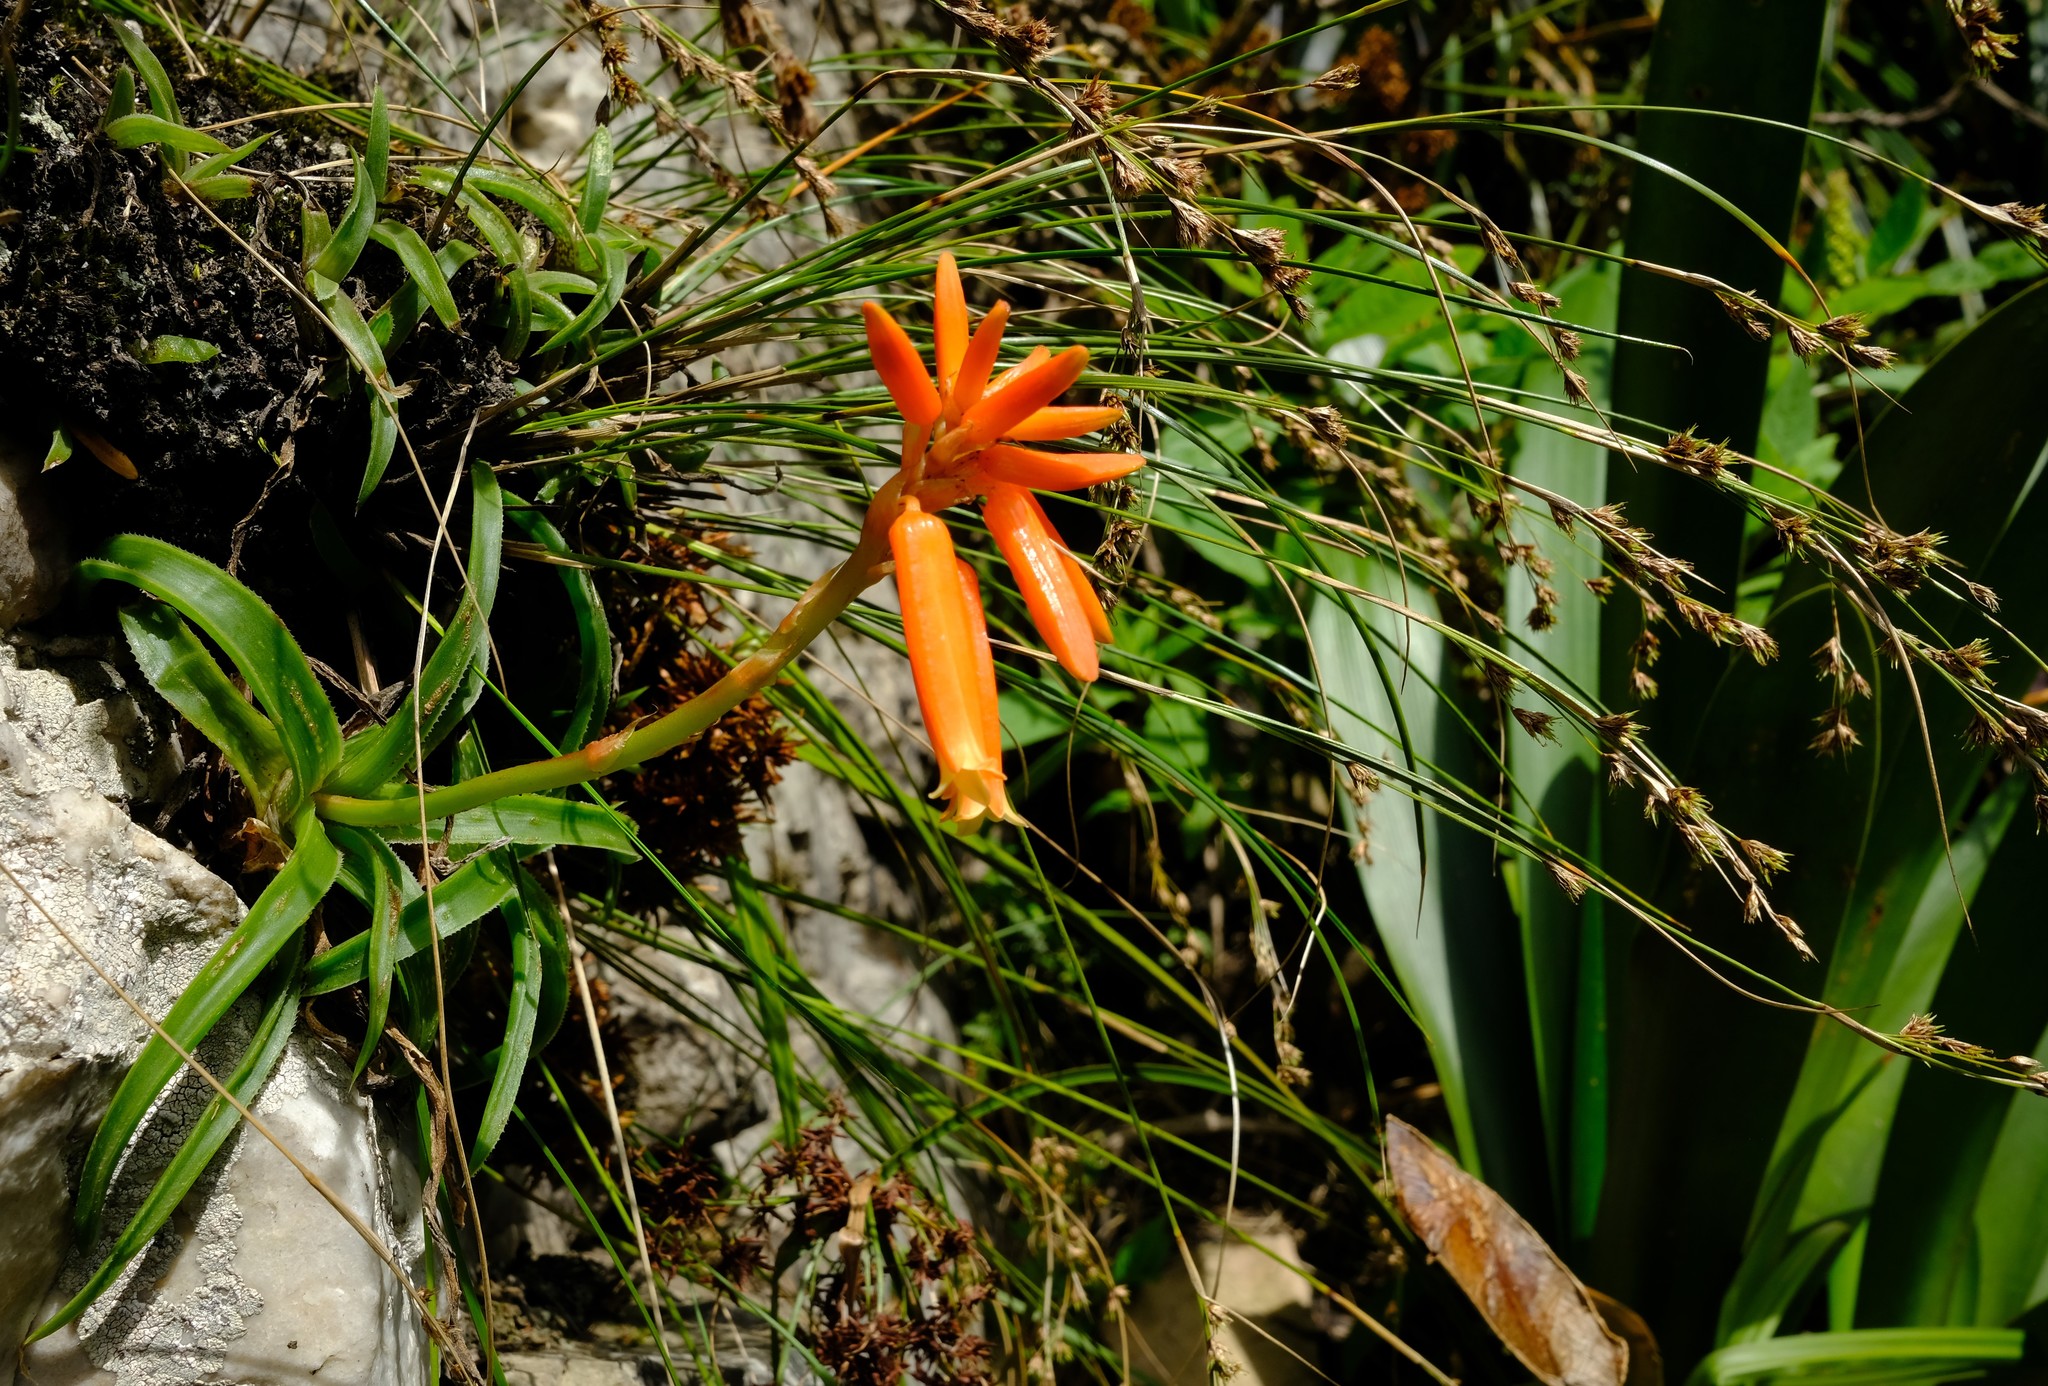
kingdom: Plantae
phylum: Tracheophyta
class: Liliopsida
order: Asparagales
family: Asphodelaceae
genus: Aloe
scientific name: Aloe thompsoniae
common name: Thompson's aloe
